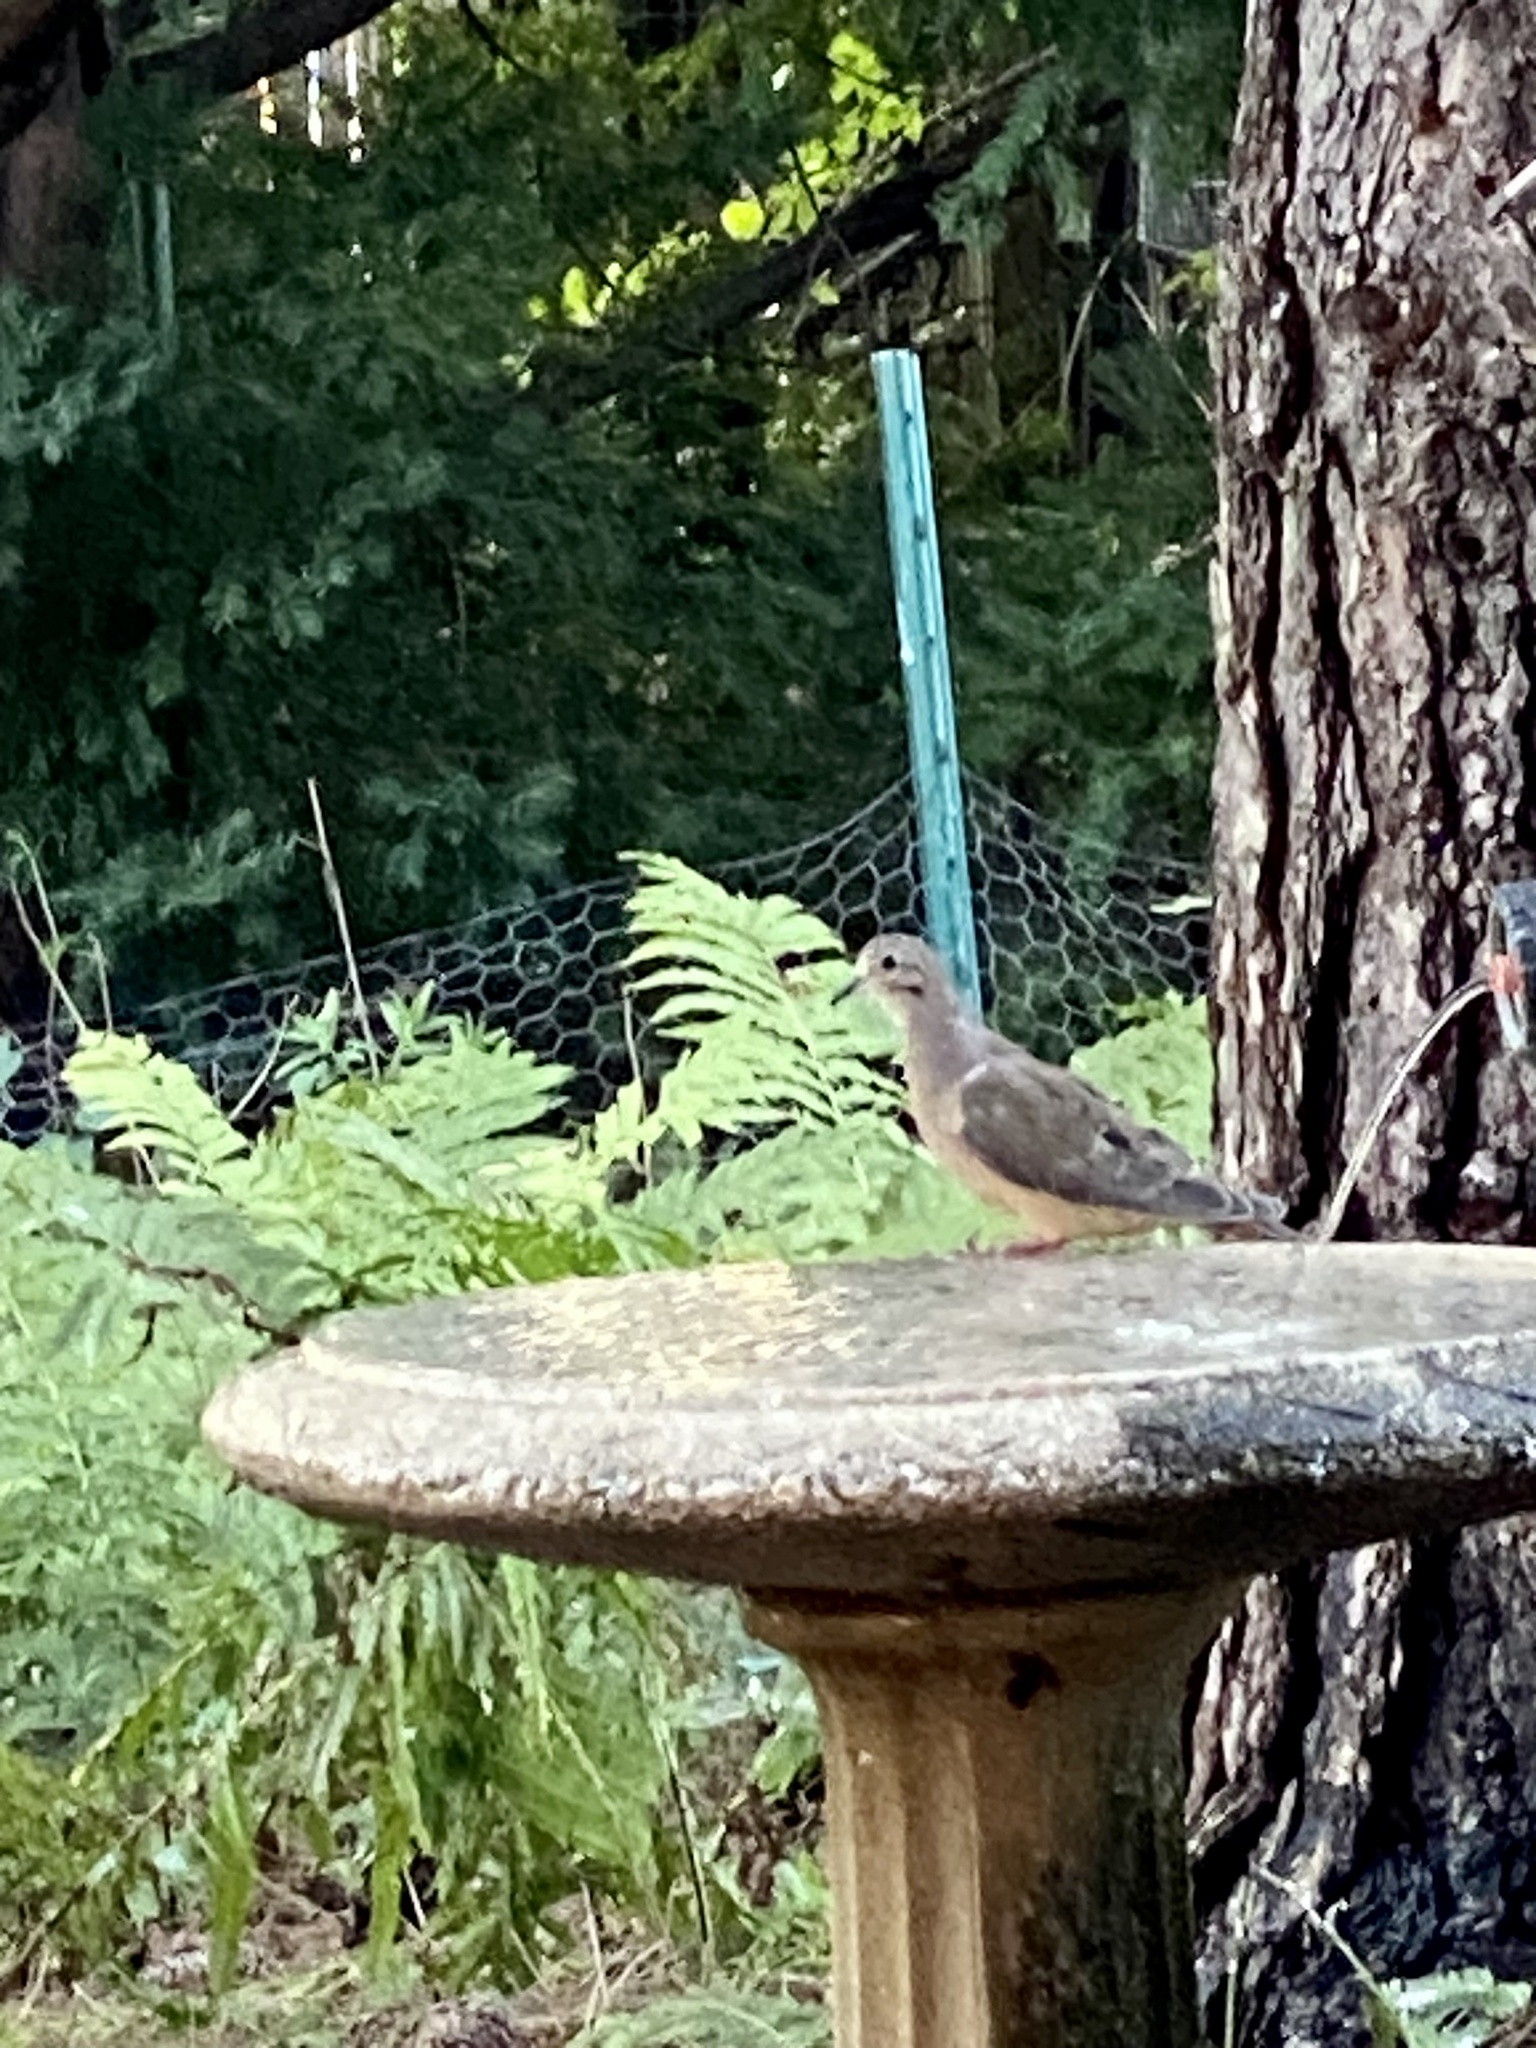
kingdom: Animalia
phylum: Chordata
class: Aves
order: Columbiformes
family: Columbidae
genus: Zenaida
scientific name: Zenaida macroura
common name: Mourning dove
